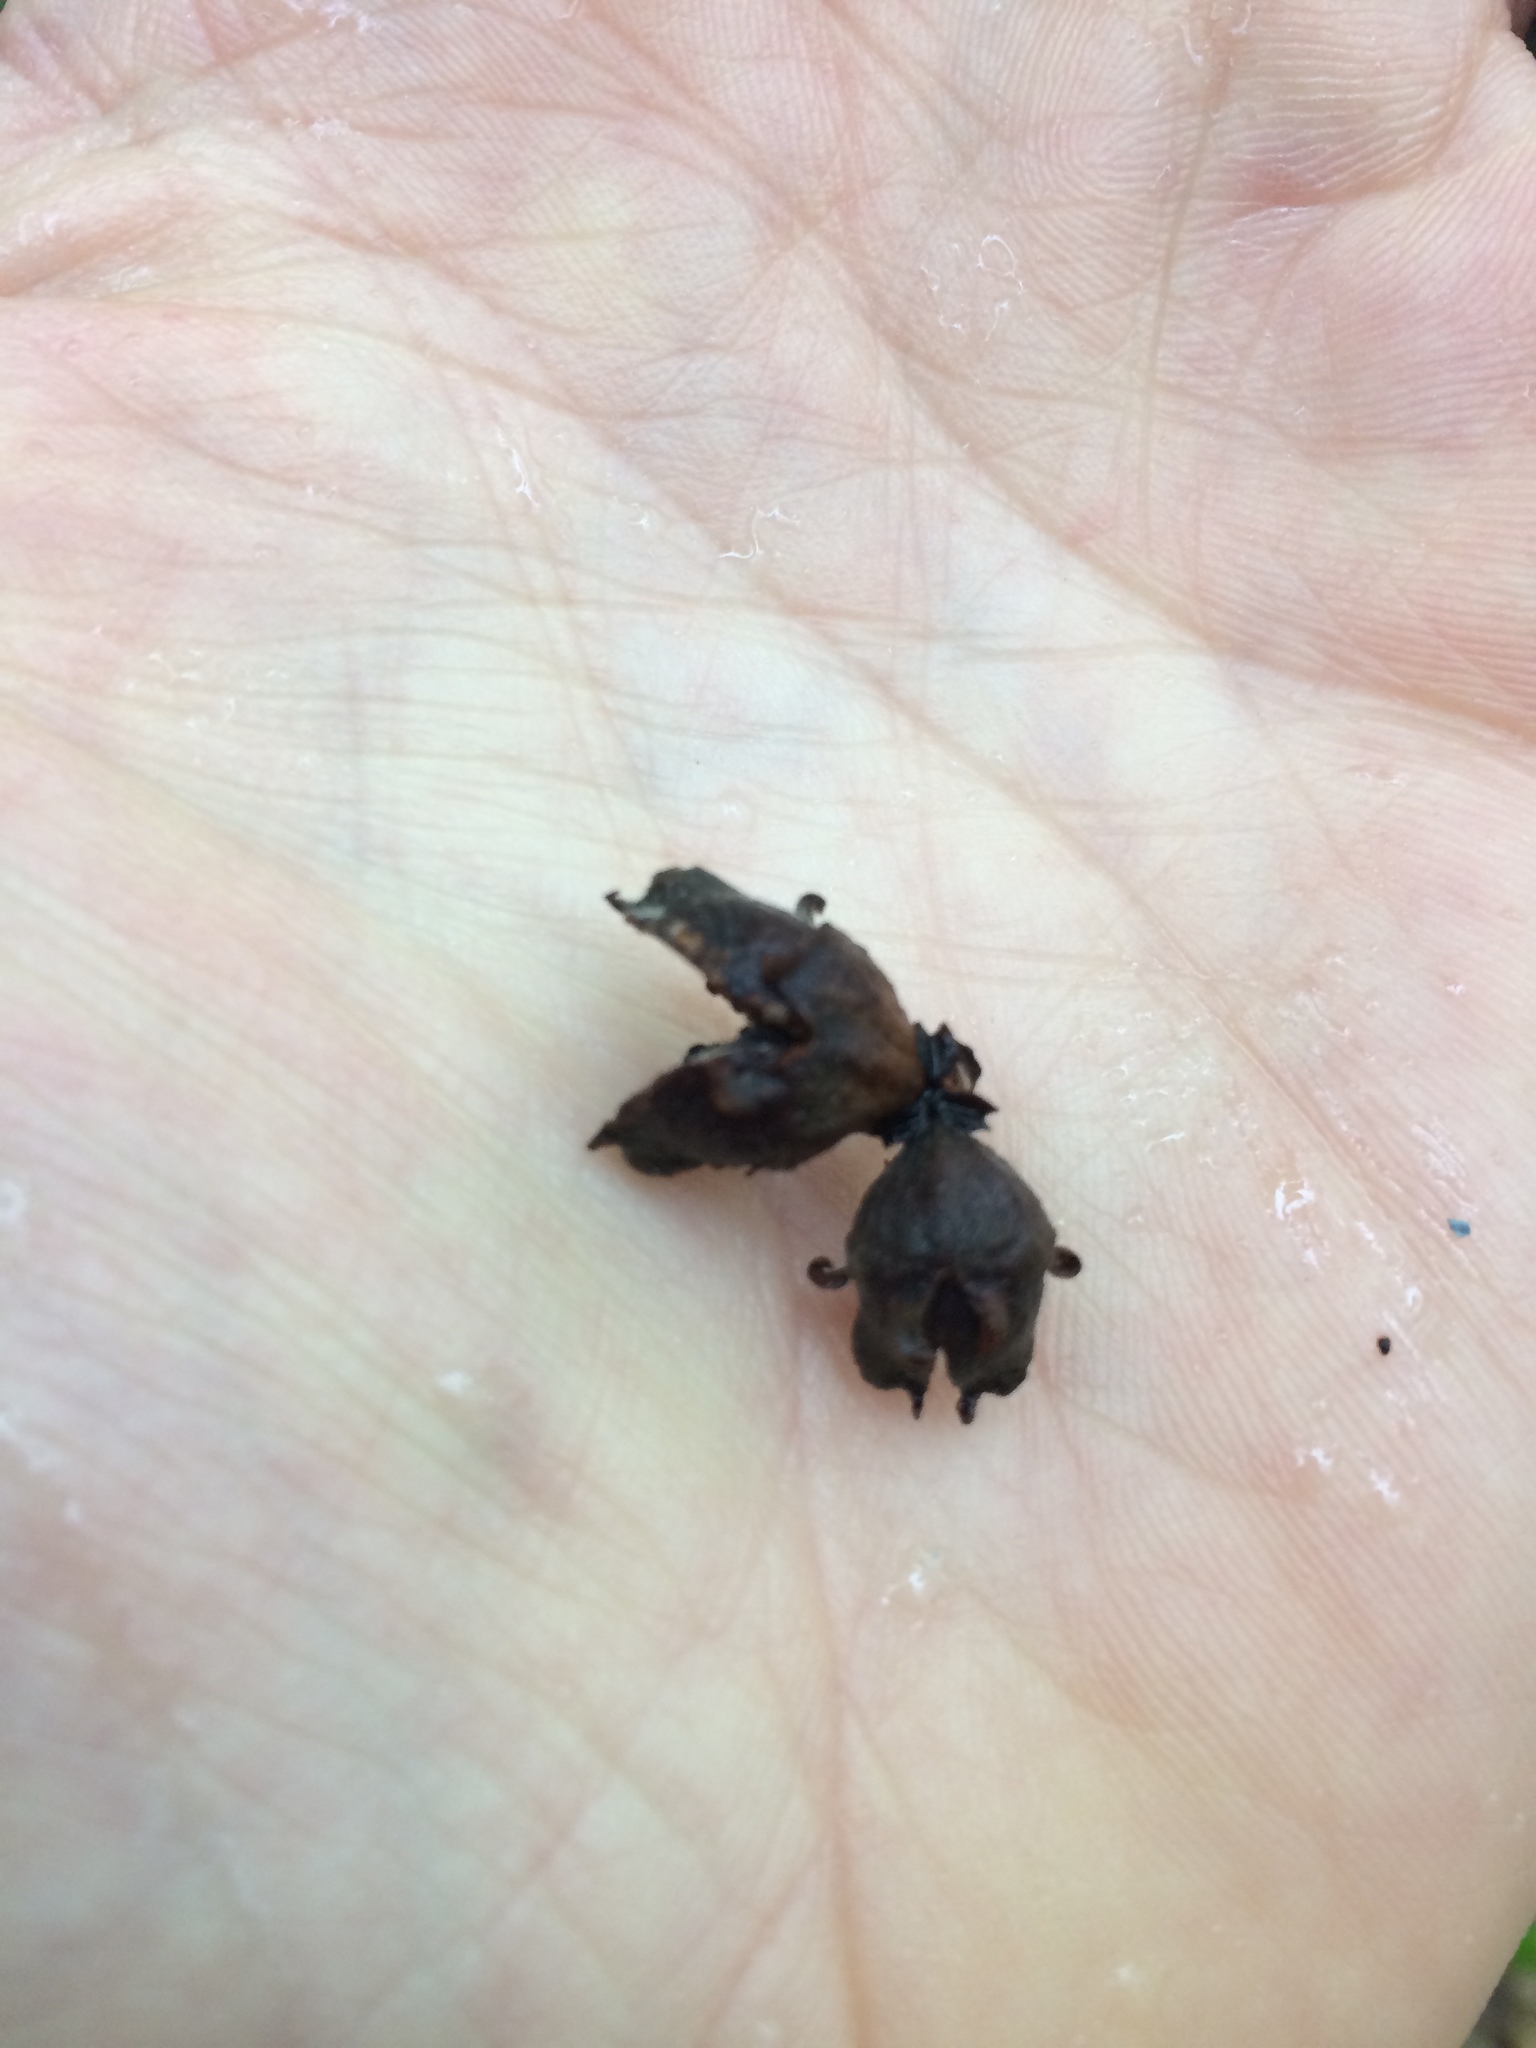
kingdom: Plantae
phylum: Tracheophyta
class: Magnoliopsida
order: Saxifragales
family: Hamamelidaceae
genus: Hamamelis
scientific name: Hamamelis virginiana
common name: Witch-hazel
